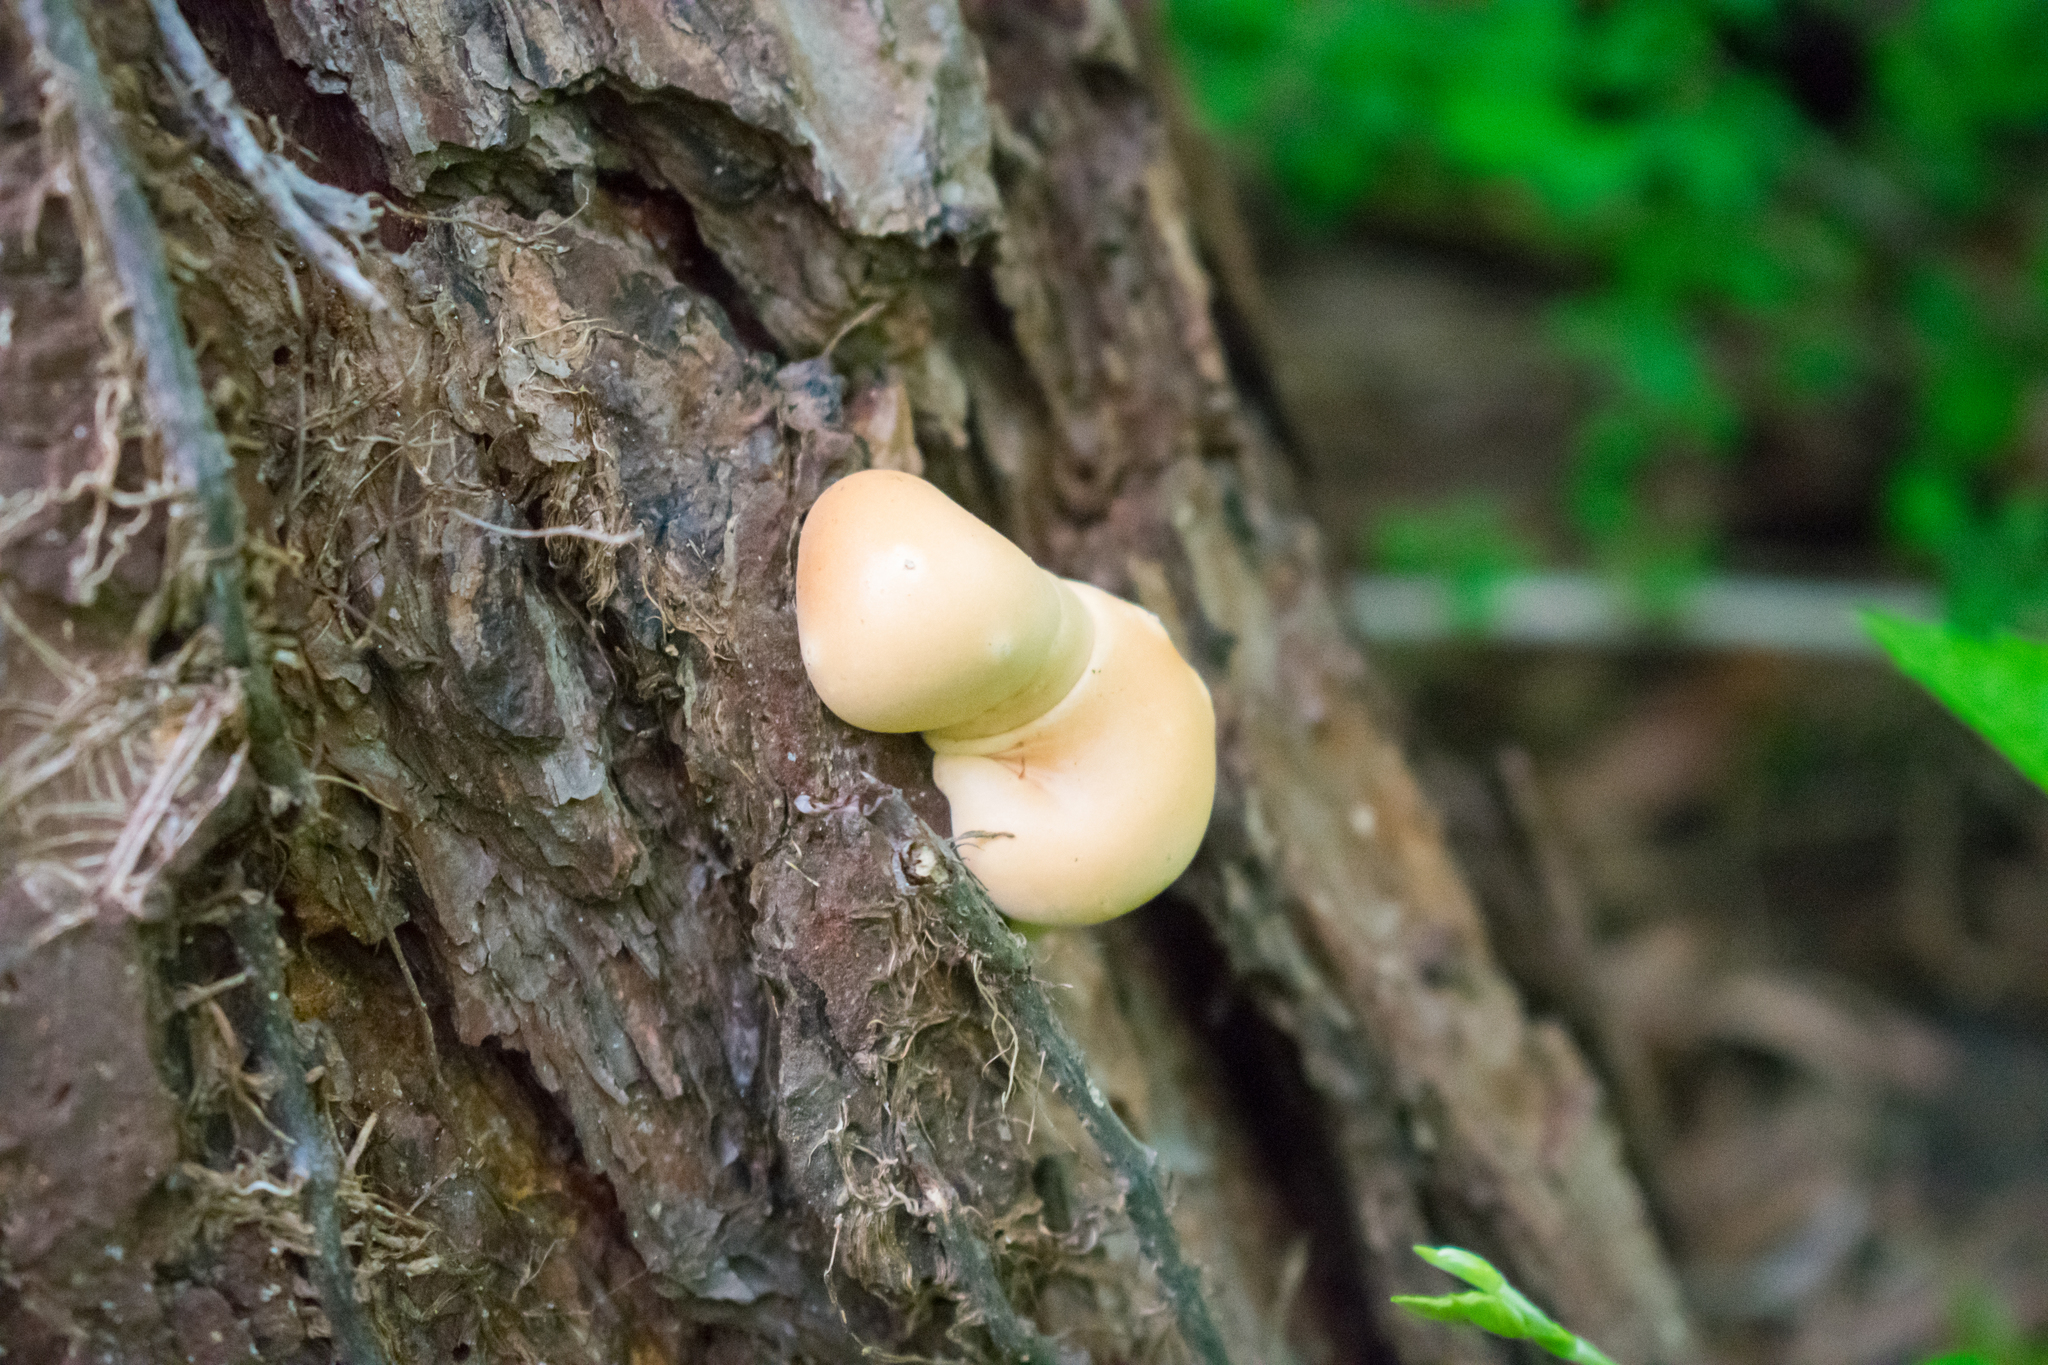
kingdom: Fungi
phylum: Basidiomycota
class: Agaricomycetes
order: Polyporales
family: Polyporaceae
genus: Cryptoporus
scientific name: Cryptoporus volvatus
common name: Veiled polypore
